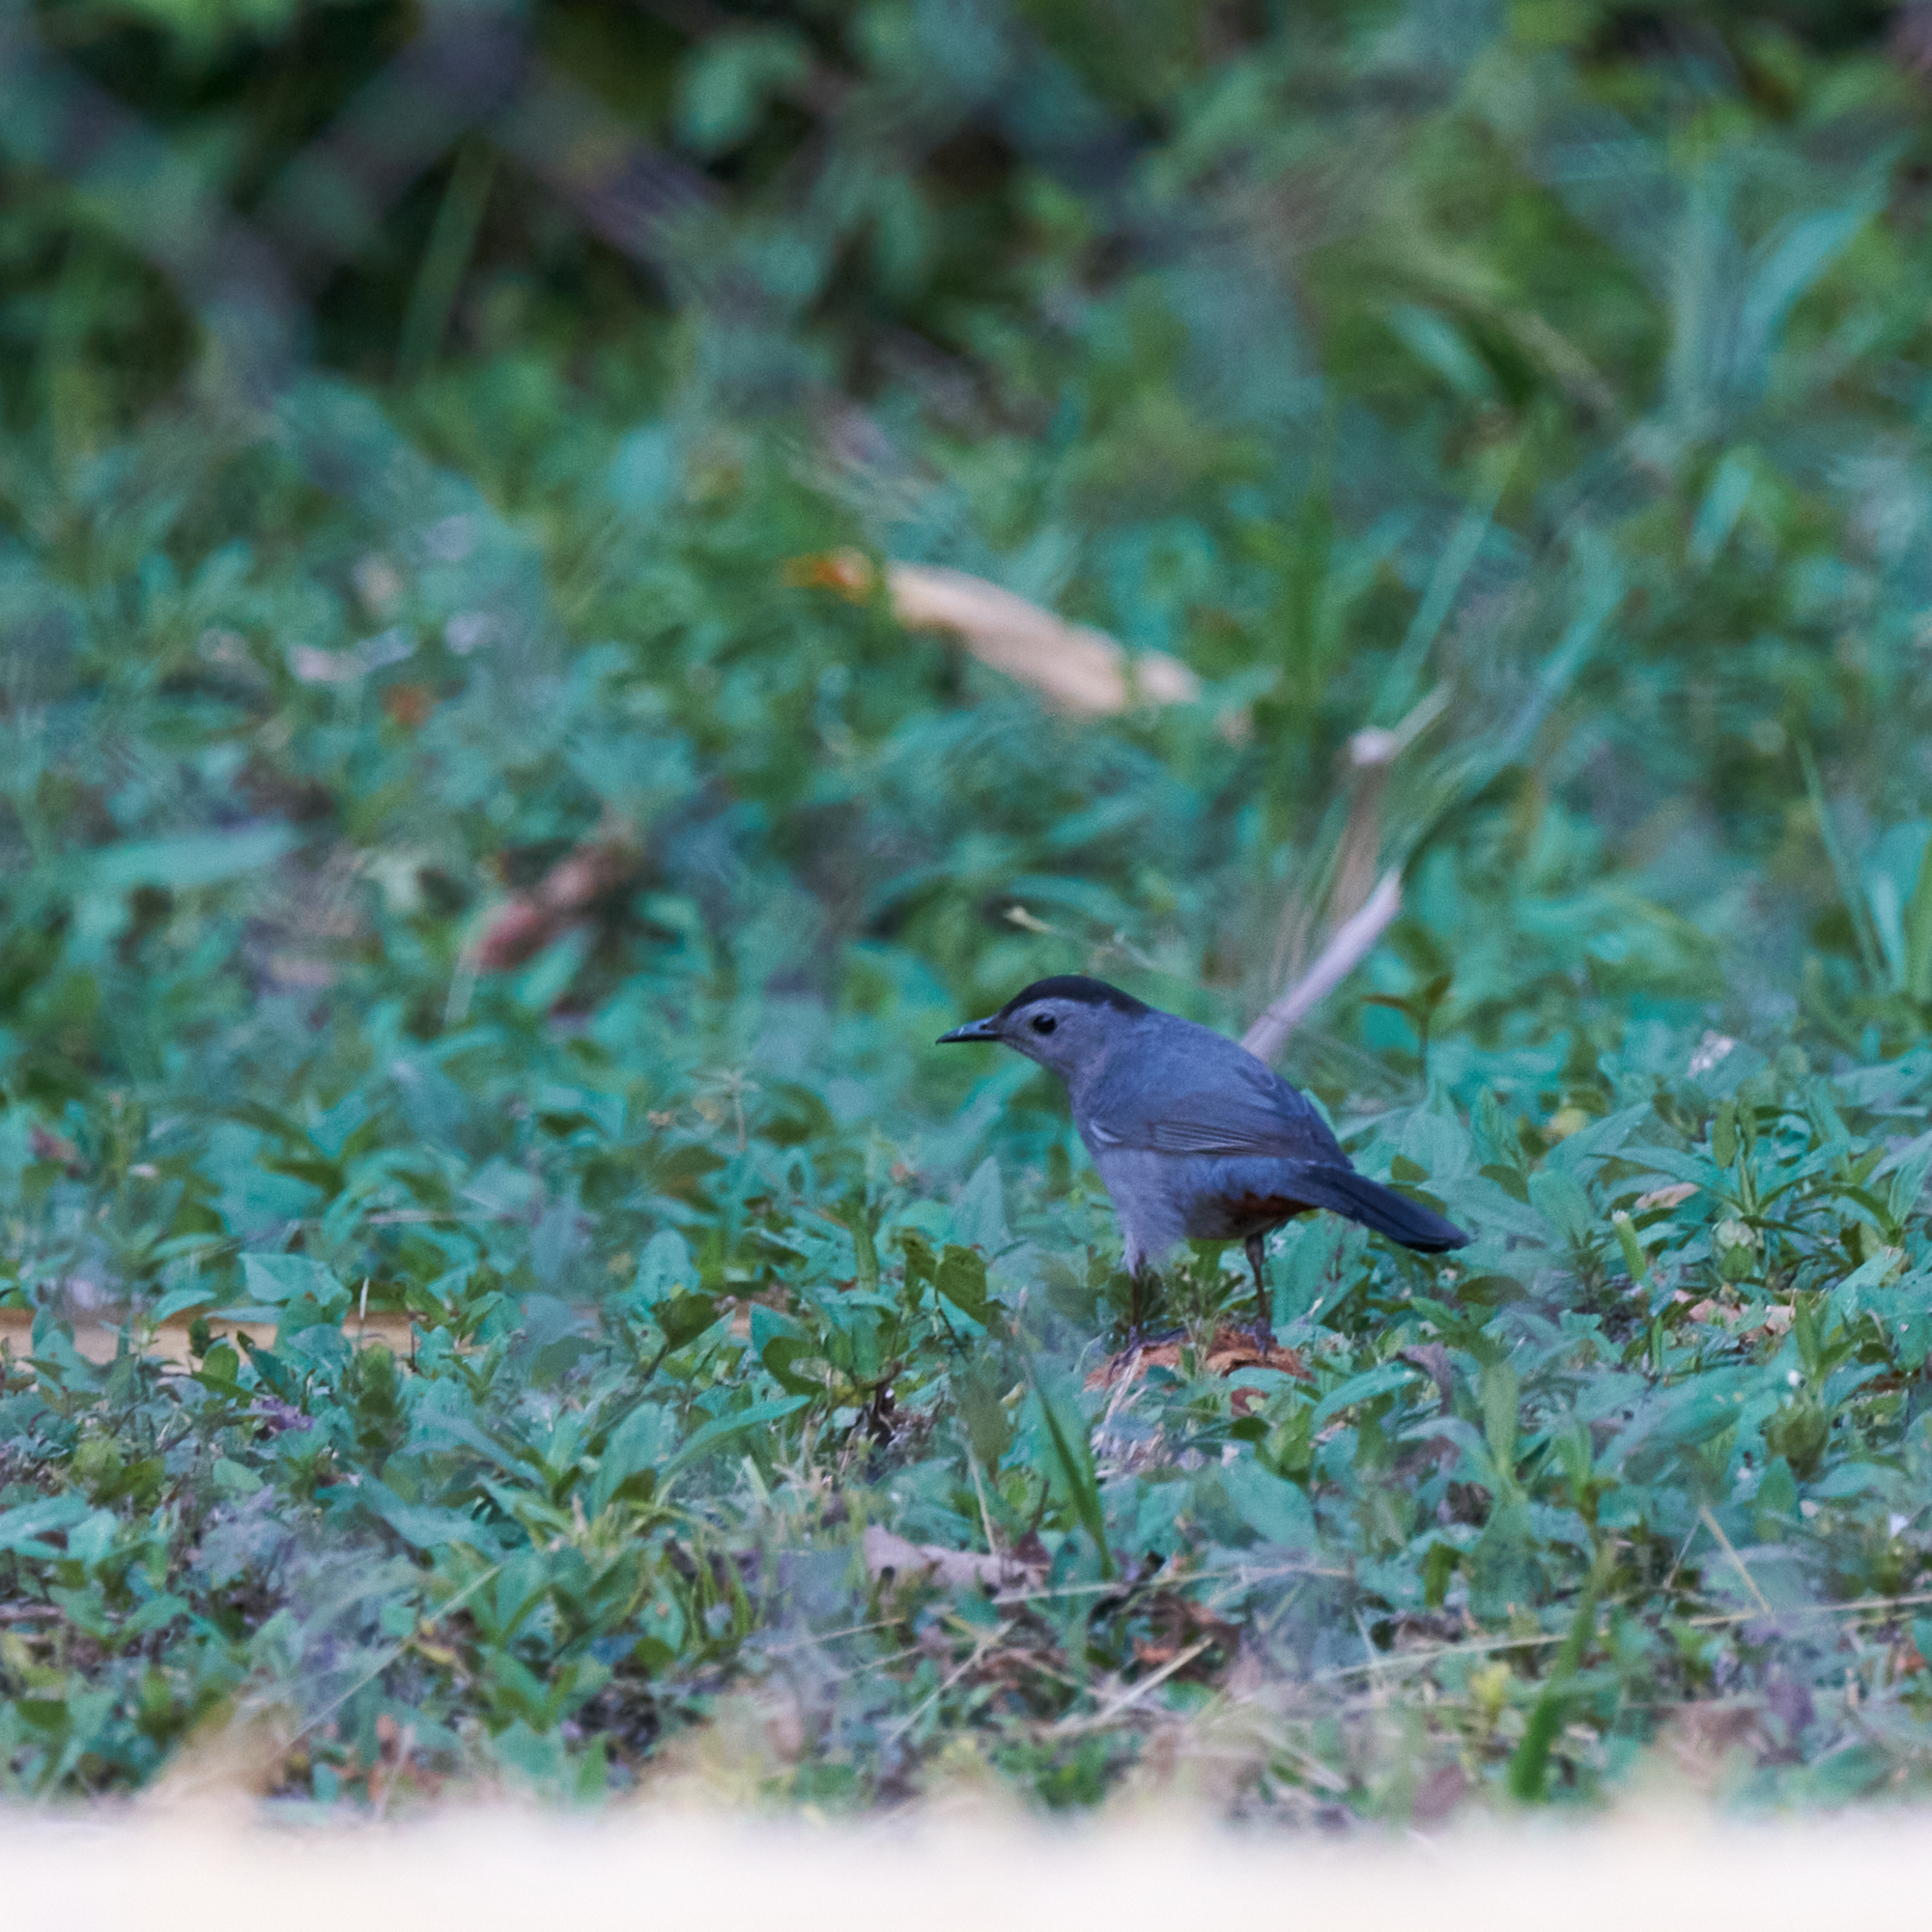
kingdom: Animalia
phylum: Chordata
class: Aves
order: Passeriformes
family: Mimidae
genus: Dumetella
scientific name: Dumetella carolinensis
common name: Gray catbird
